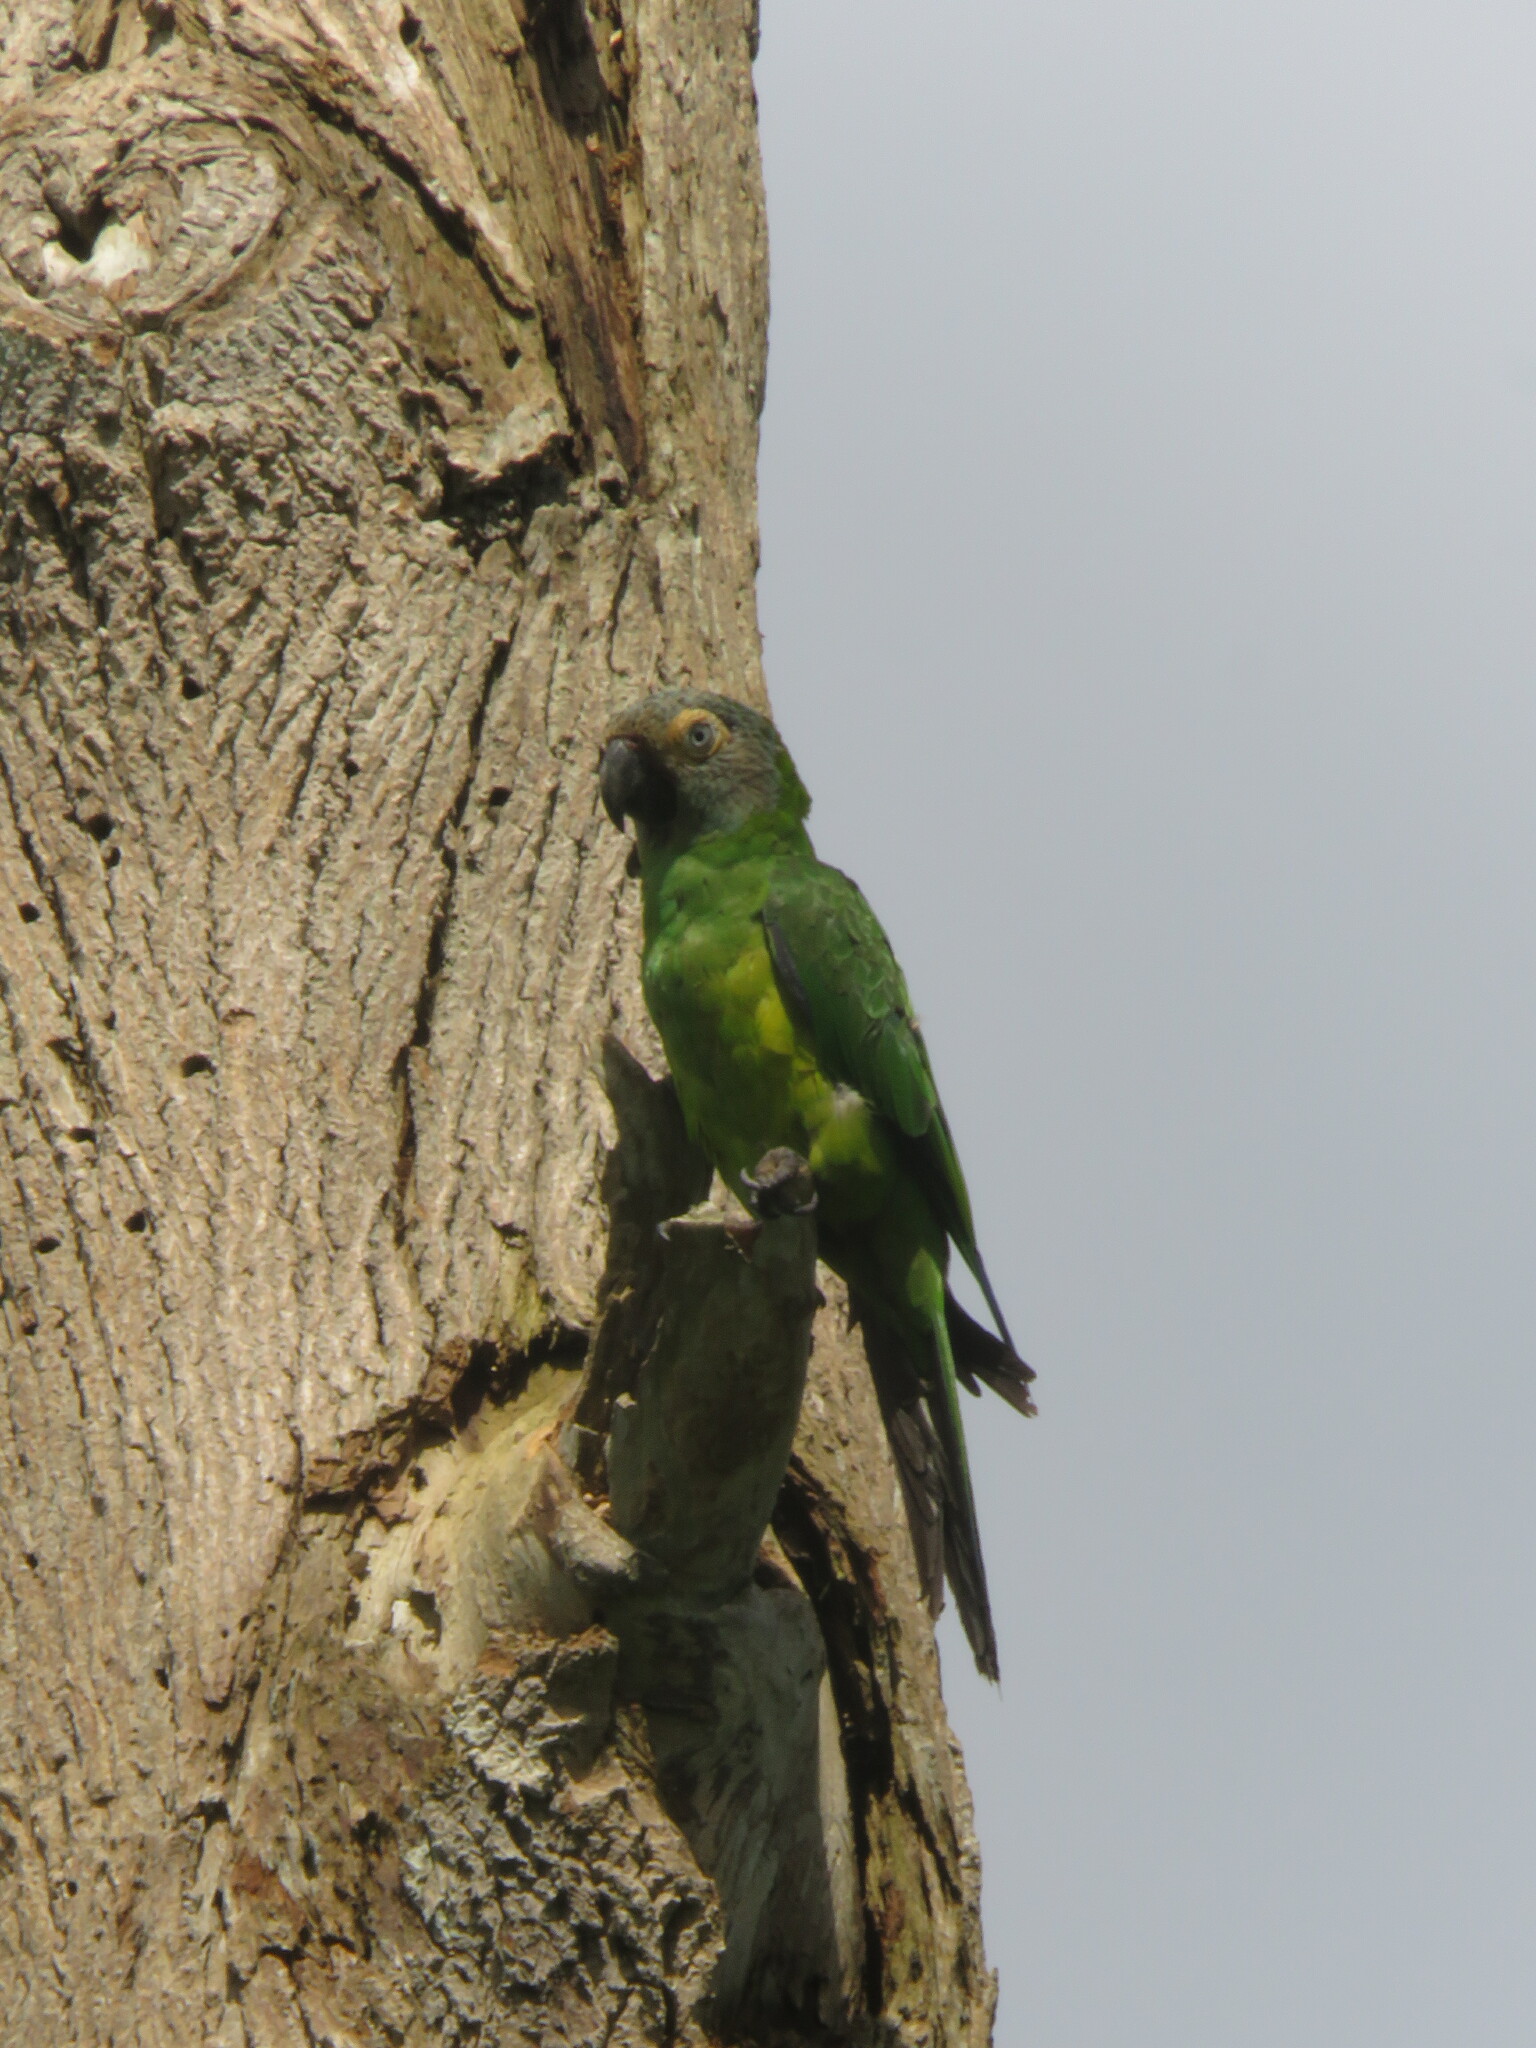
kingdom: Animalia
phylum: Chordata
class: Aves
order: Psittaciformes
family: Psittacidae
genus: Aratinga
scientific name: Aratinga weddellii
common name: Dusky-headed parakeet
